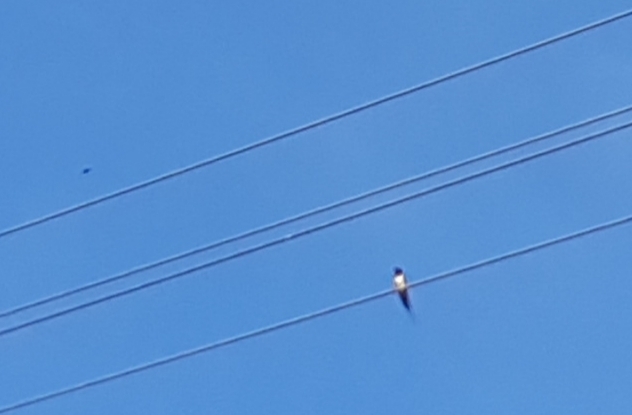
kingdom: Animalia
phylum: Chordata
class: Aves
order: Passeriformes
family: Hirundinidae
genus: Hirundo
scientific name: Hirundo rustica
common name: Barn swallow
